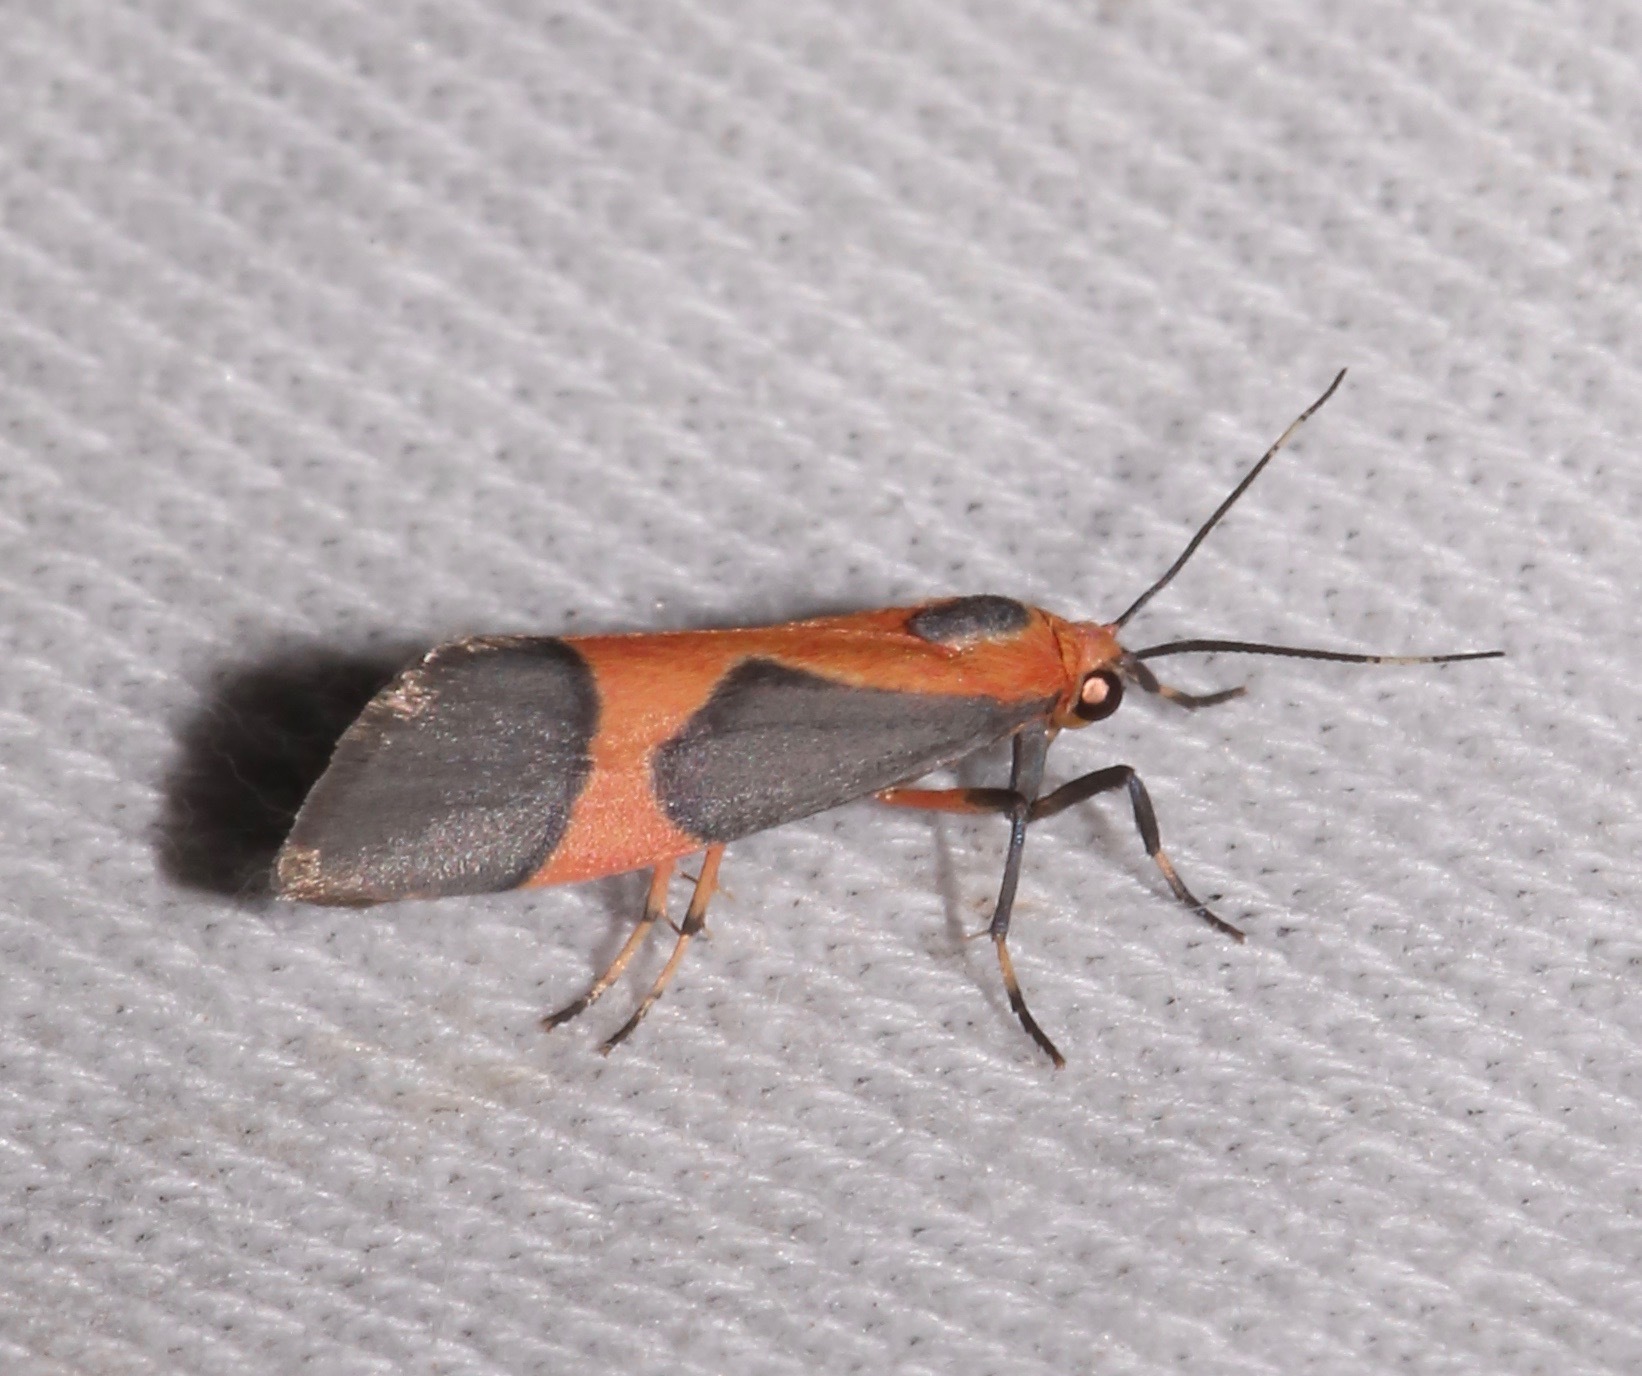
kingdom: Animalia
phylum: Arthropoda
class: Insecta
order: Lepidoptera
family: Erebidae
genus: Cisthene
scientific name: Cisthene martini
